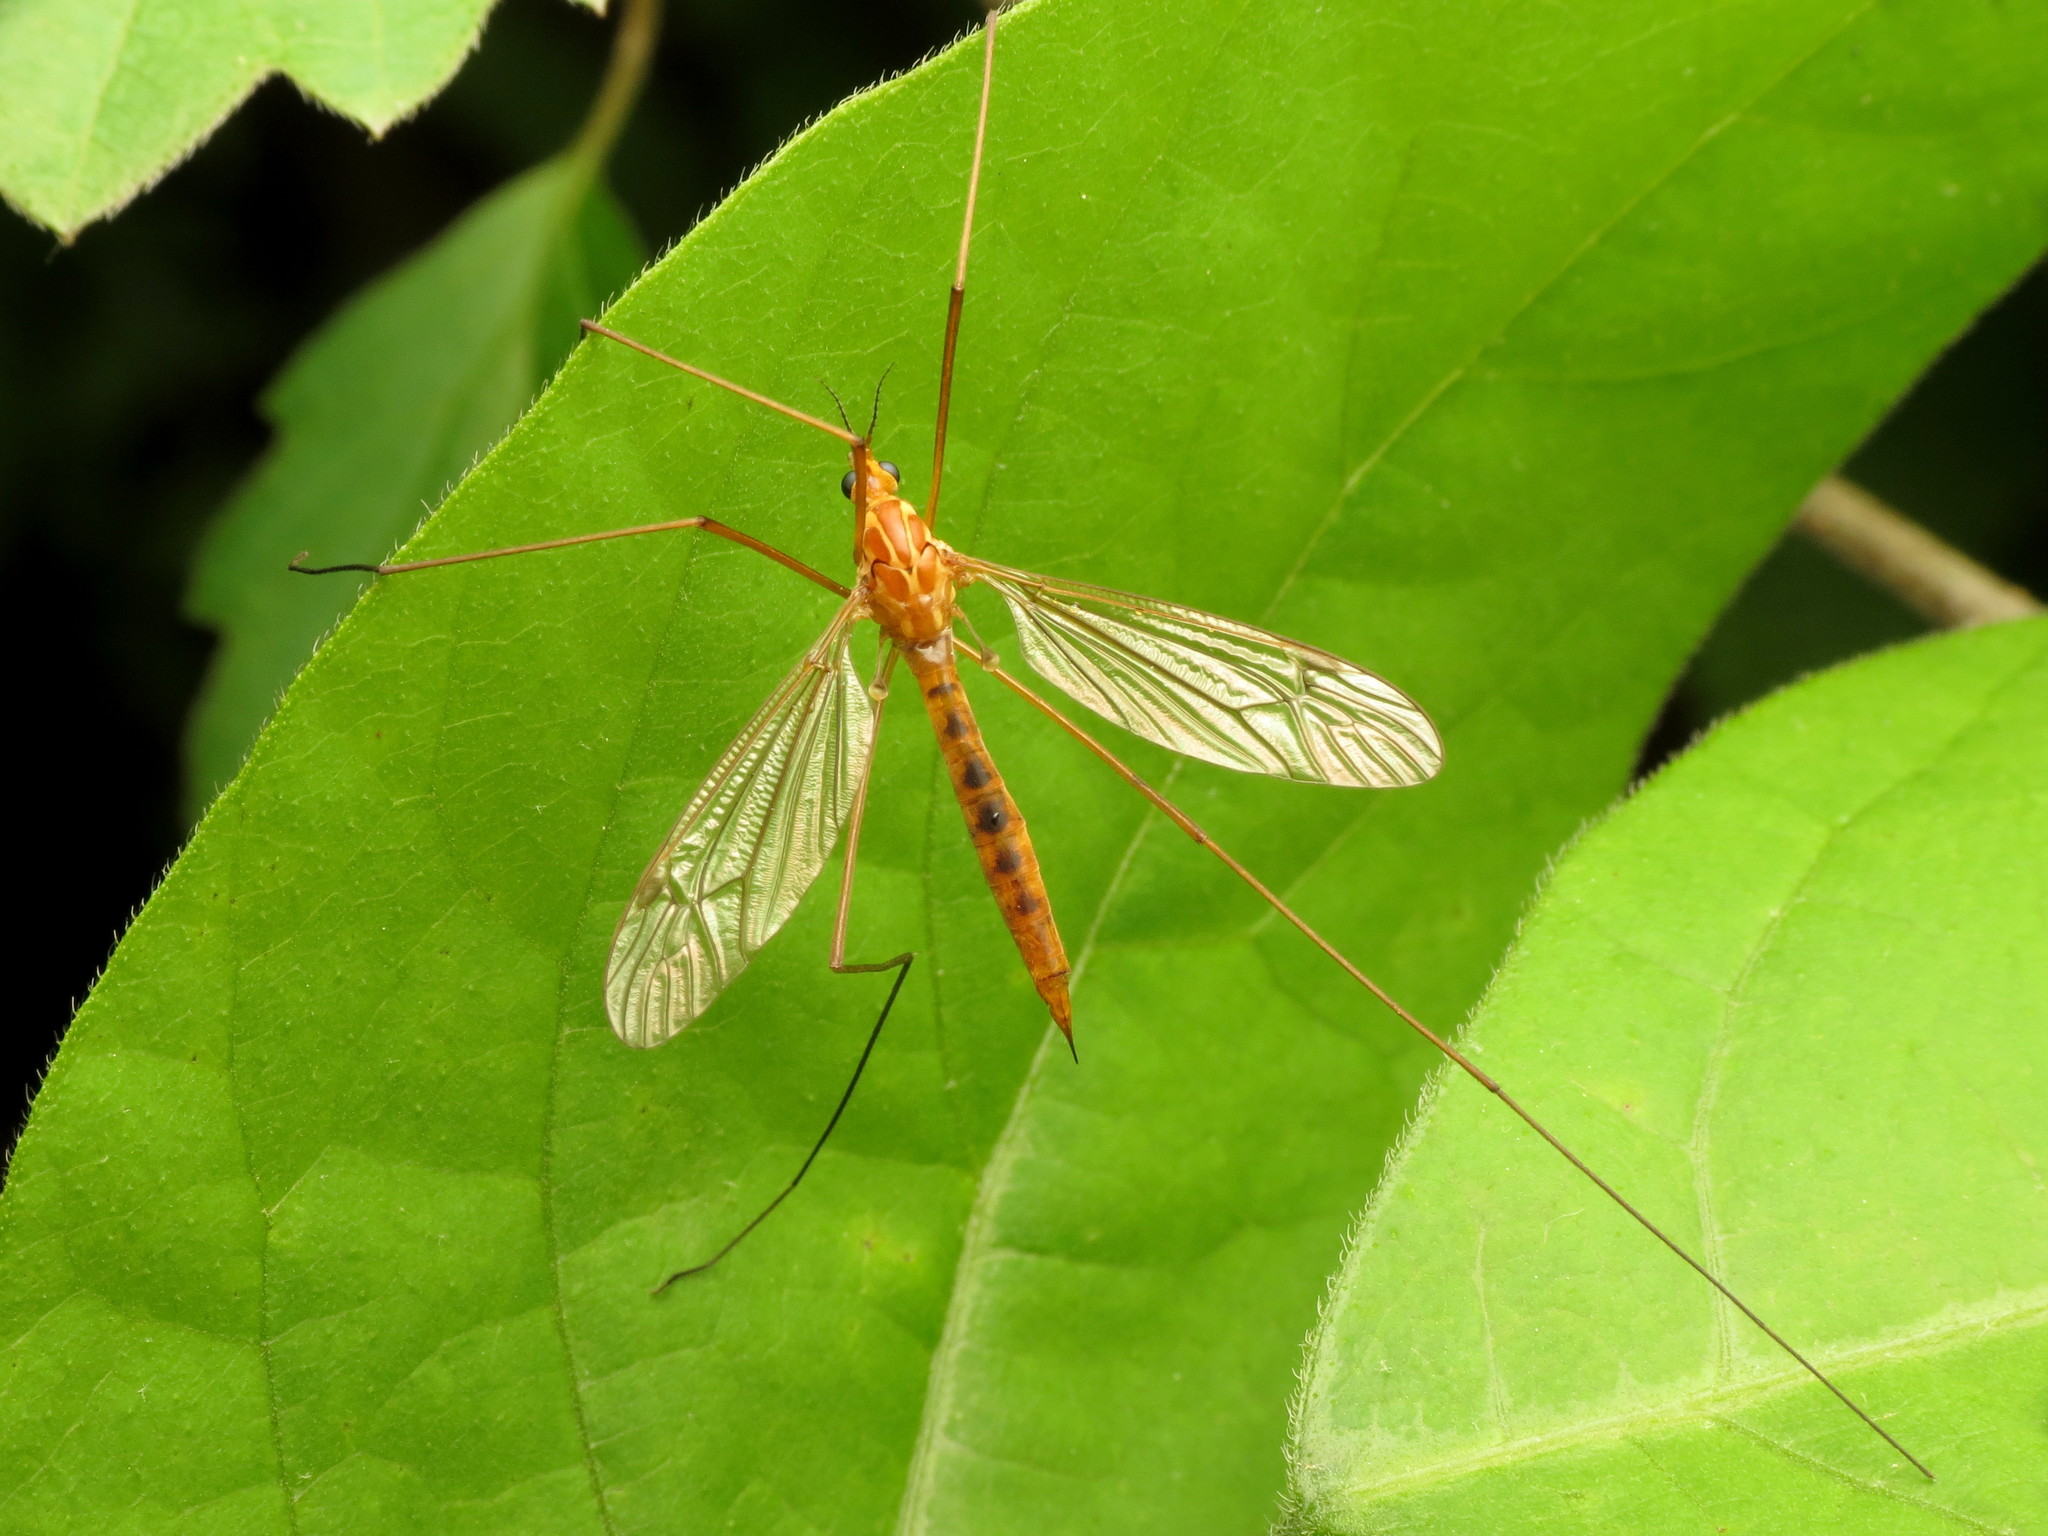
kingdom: Animalia
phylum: Arthropoda
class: Insecta
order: Diptera
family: Tipulidae
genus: Nephrotoma
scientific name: Nephrotoma ferruginea
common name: Ferruginous tiger crane fly
